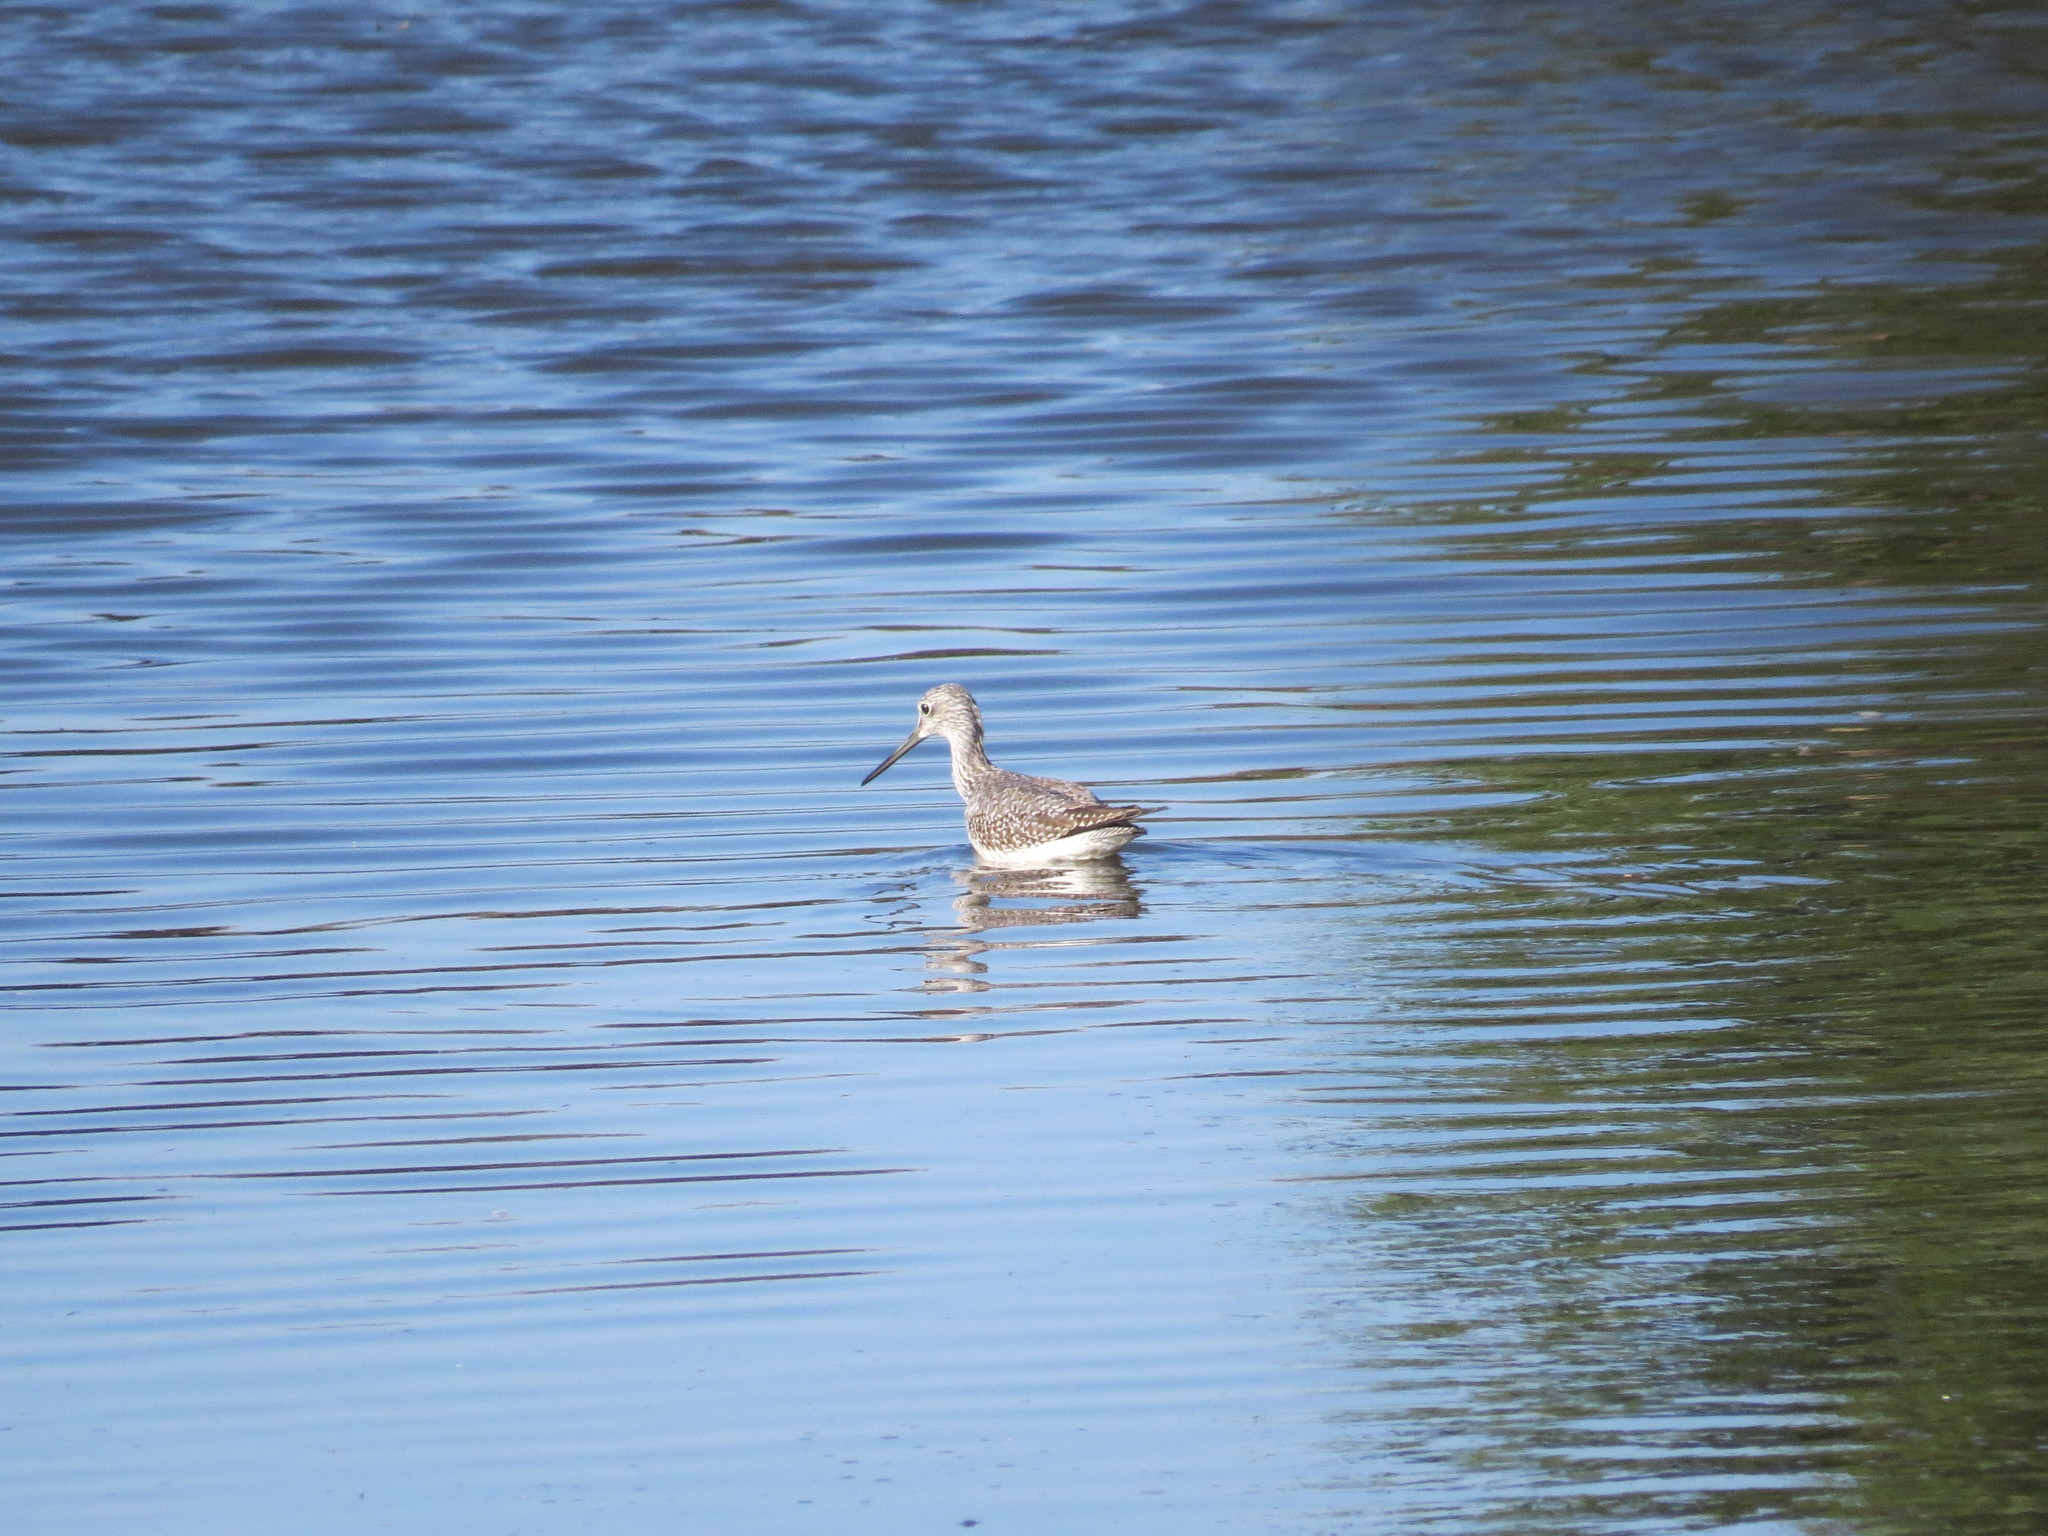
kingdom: Animalia
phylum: Chordata
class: Aves
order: Charadriiformes
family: Scolopacidae
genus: Tringa
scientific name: Tringa semipalmata
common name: Willet
